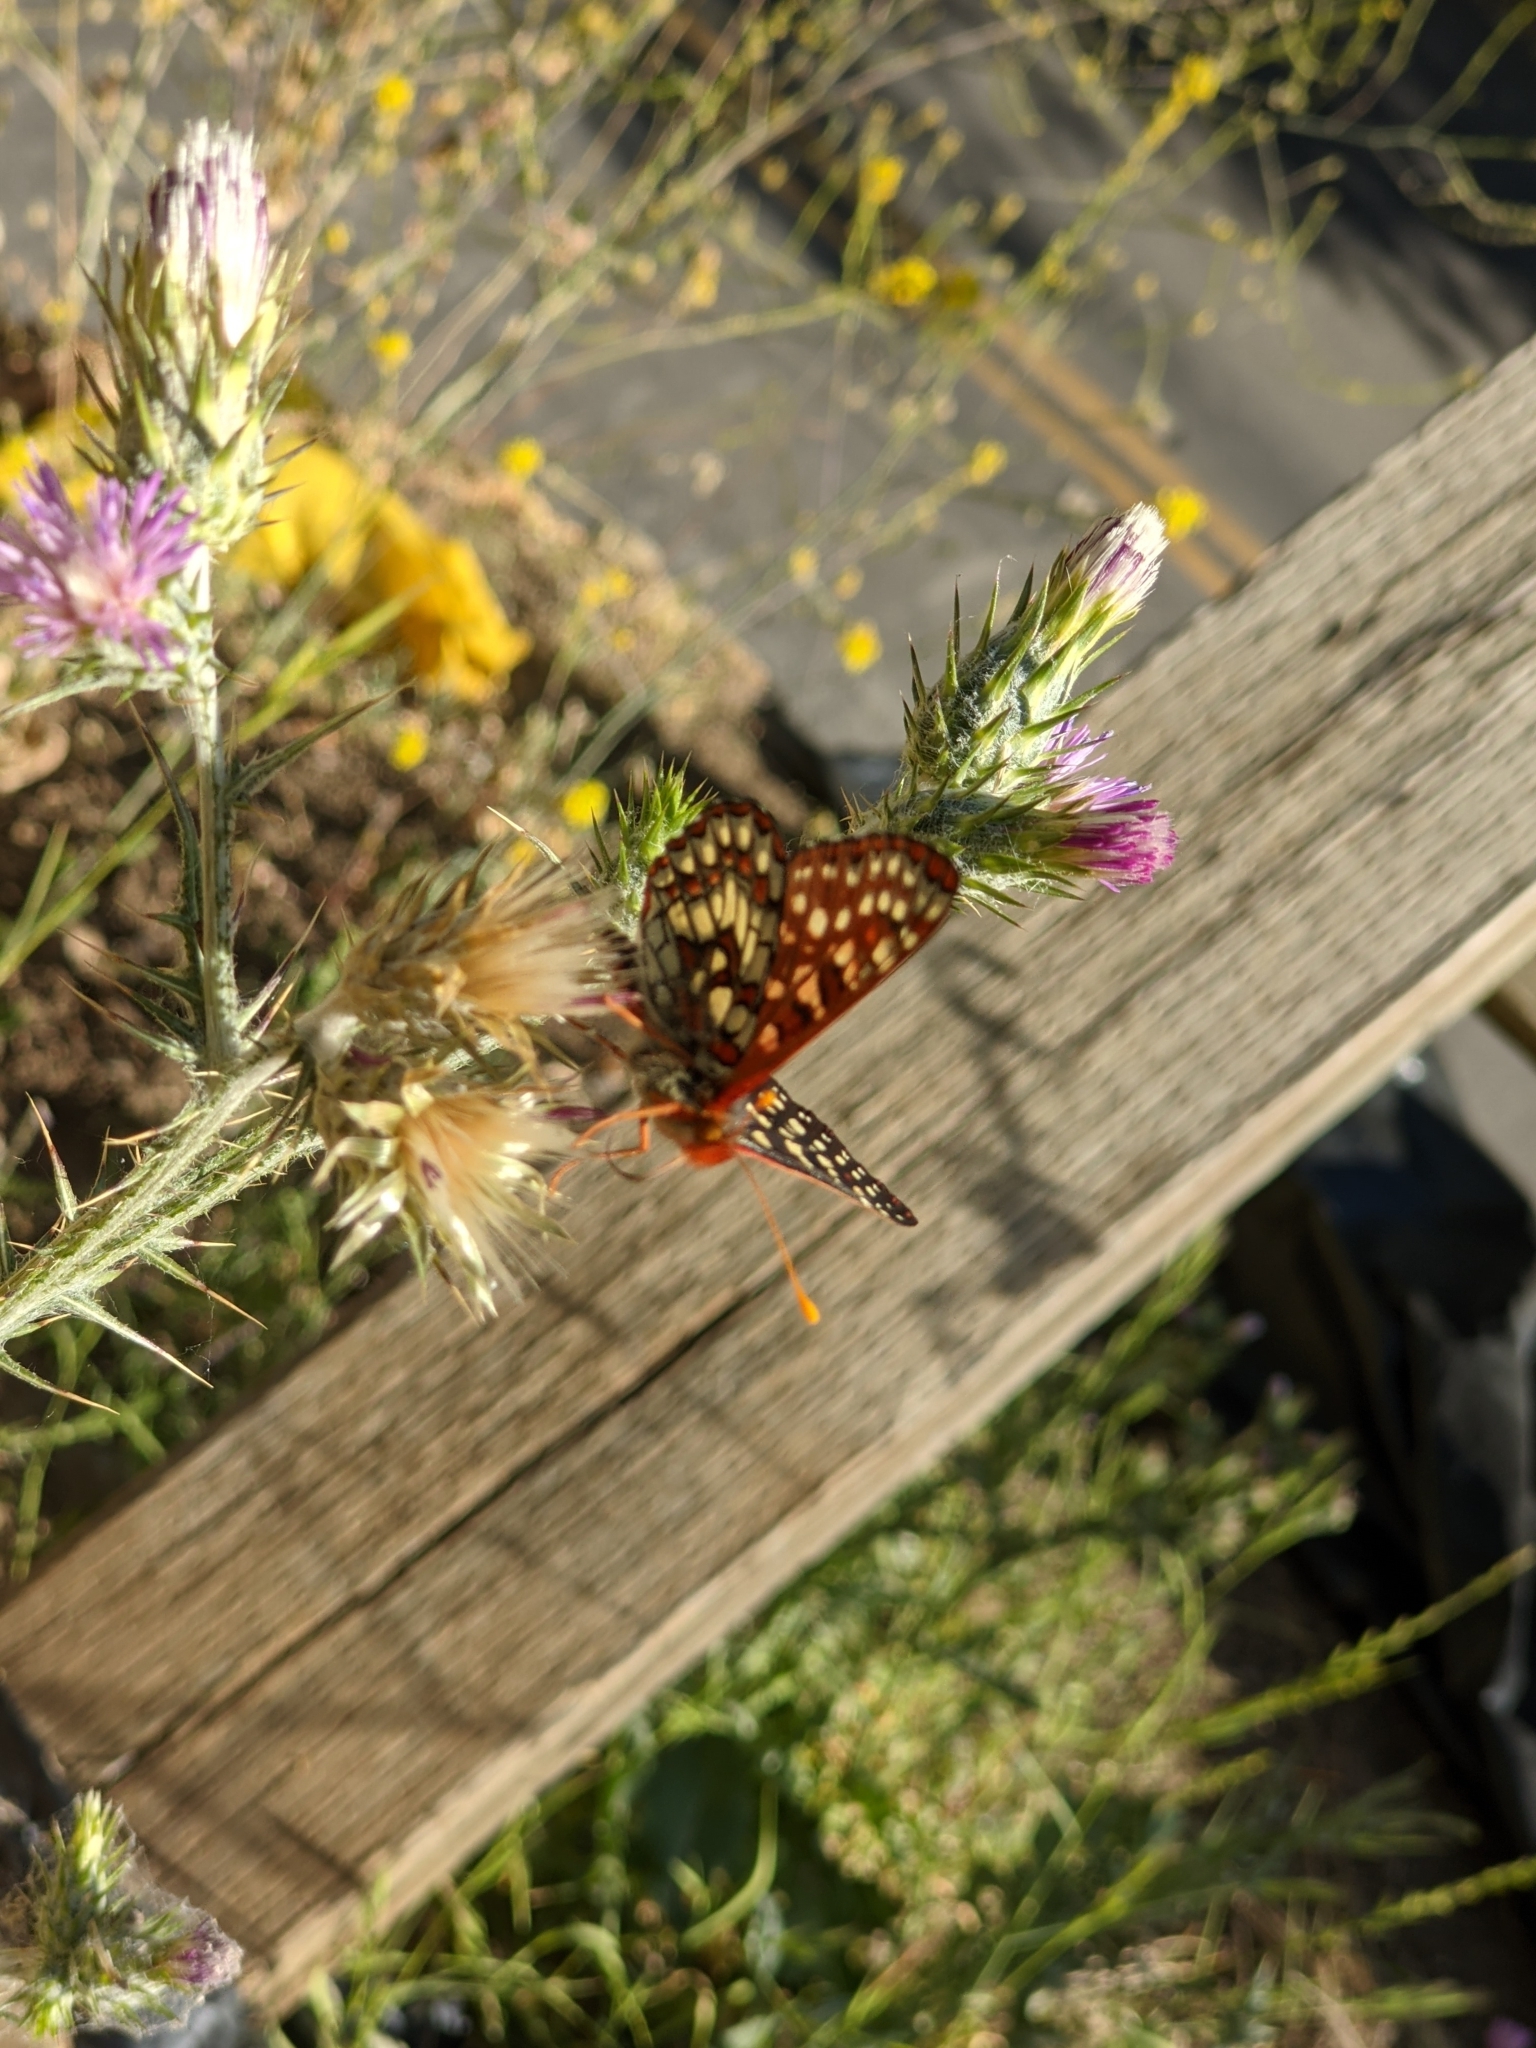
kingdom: Animalia
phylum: Arthropoda
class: Insecta
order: Lepidoptera
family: Nymphalidae
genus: Occidryas
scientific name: Occidryas chalcedona
